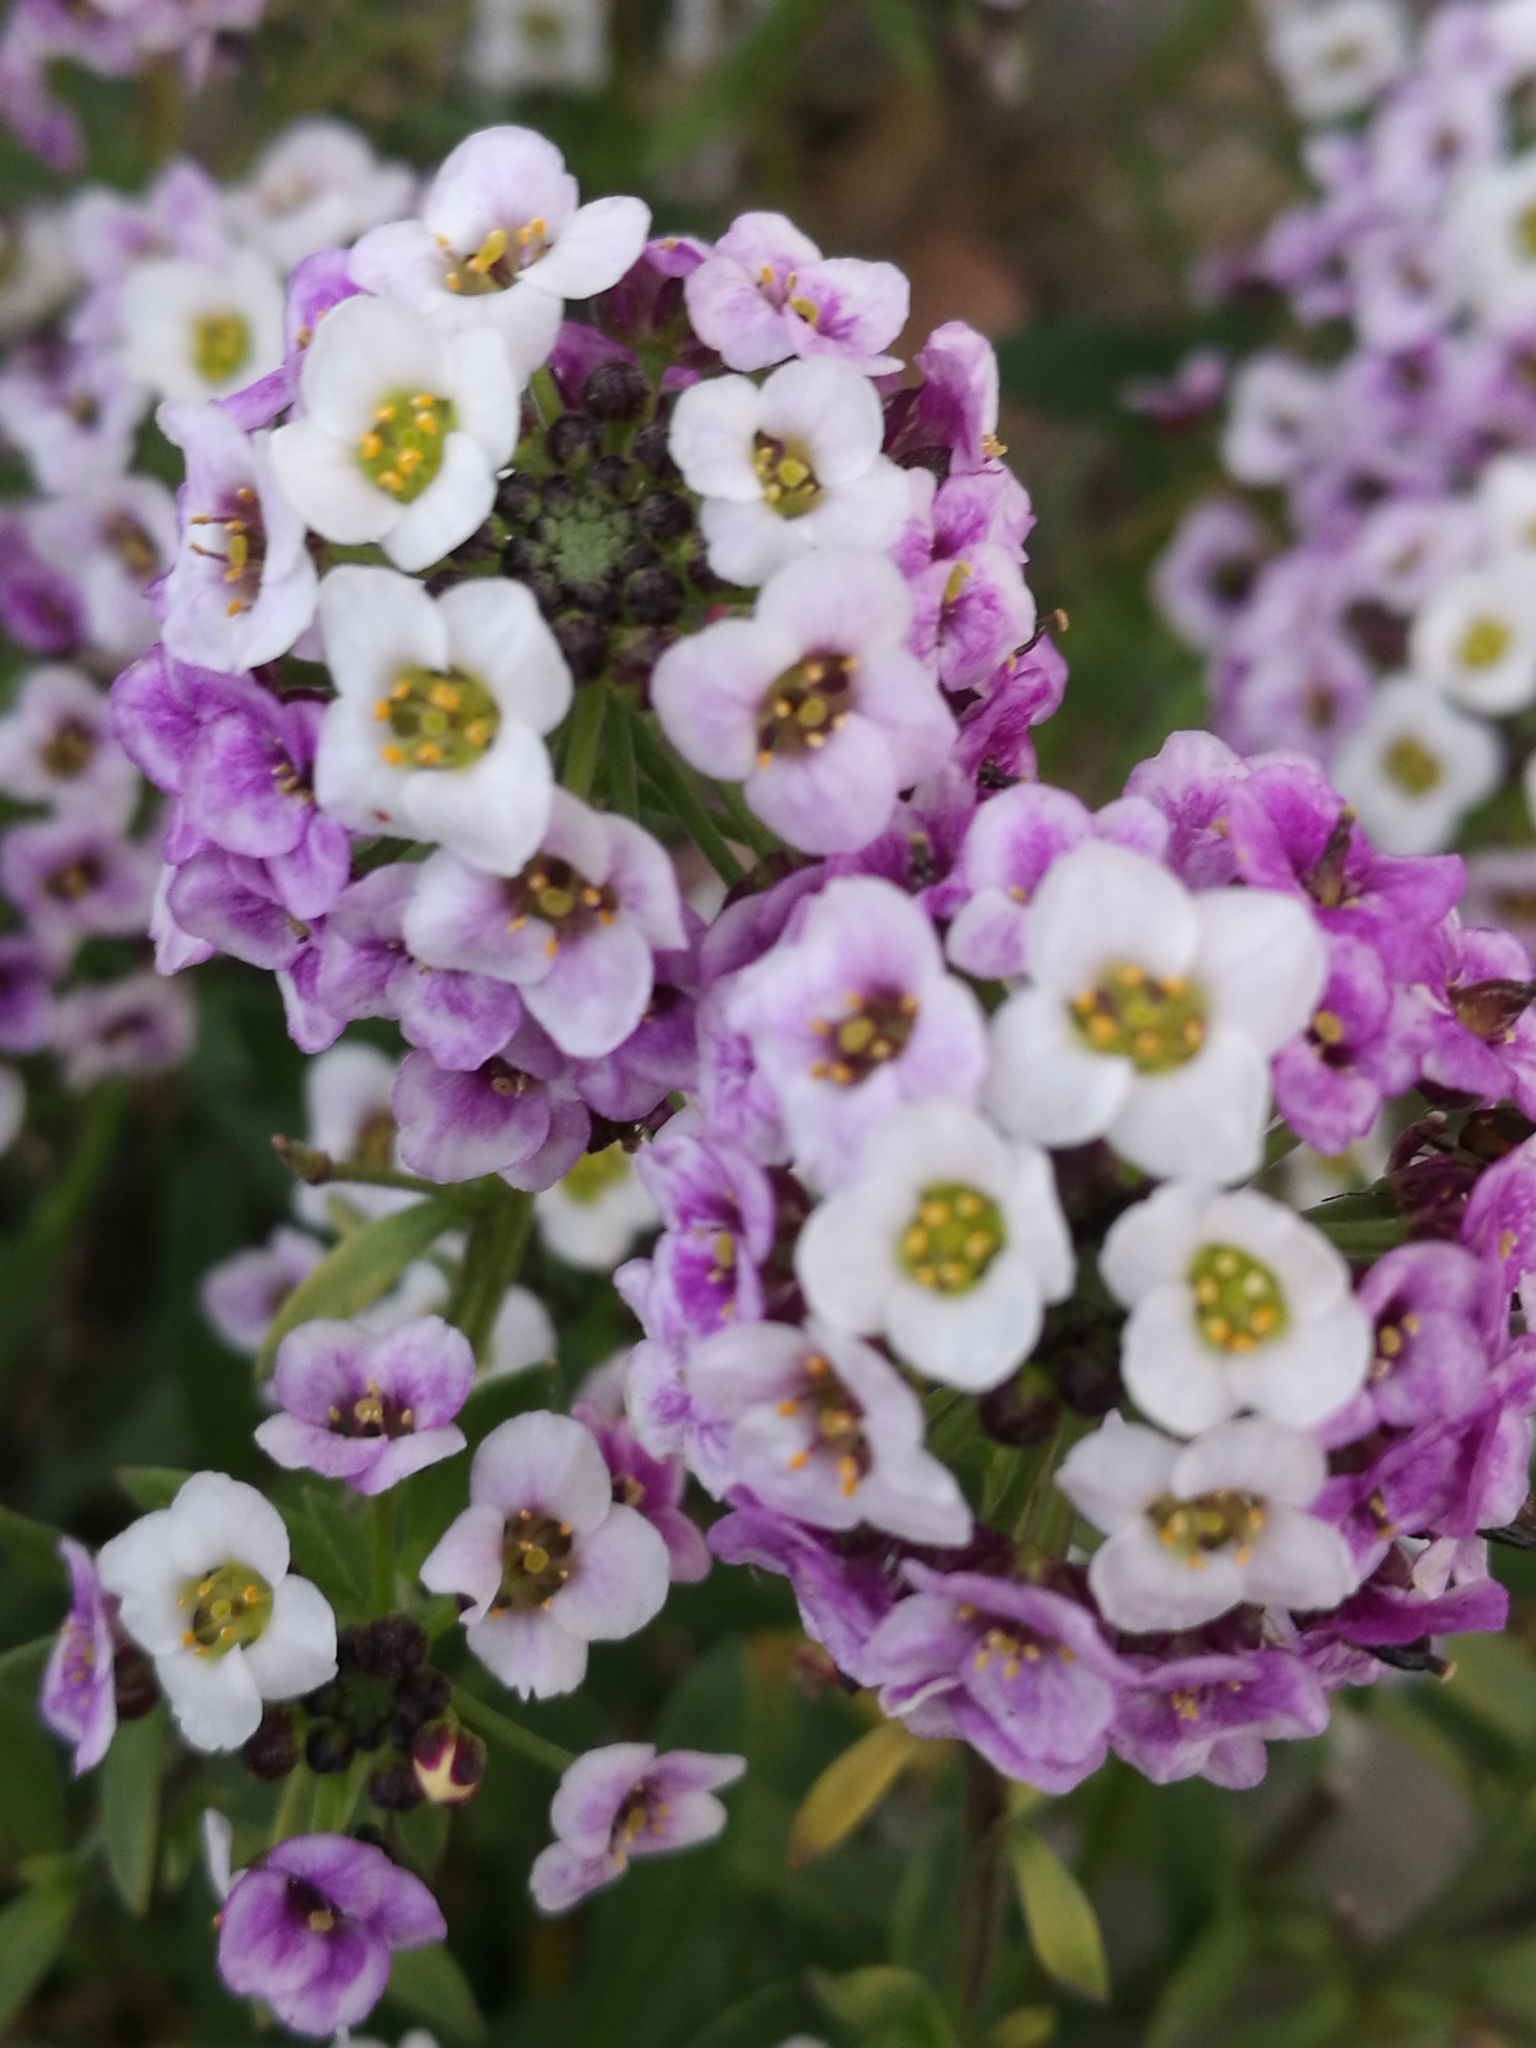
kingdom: Plantae
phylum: Tracheophyta
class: Magnoliopsida
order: Brassicales
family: Brassicaceae
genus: Lobularia
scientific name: Lobularia maritima
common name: Sweet alison
